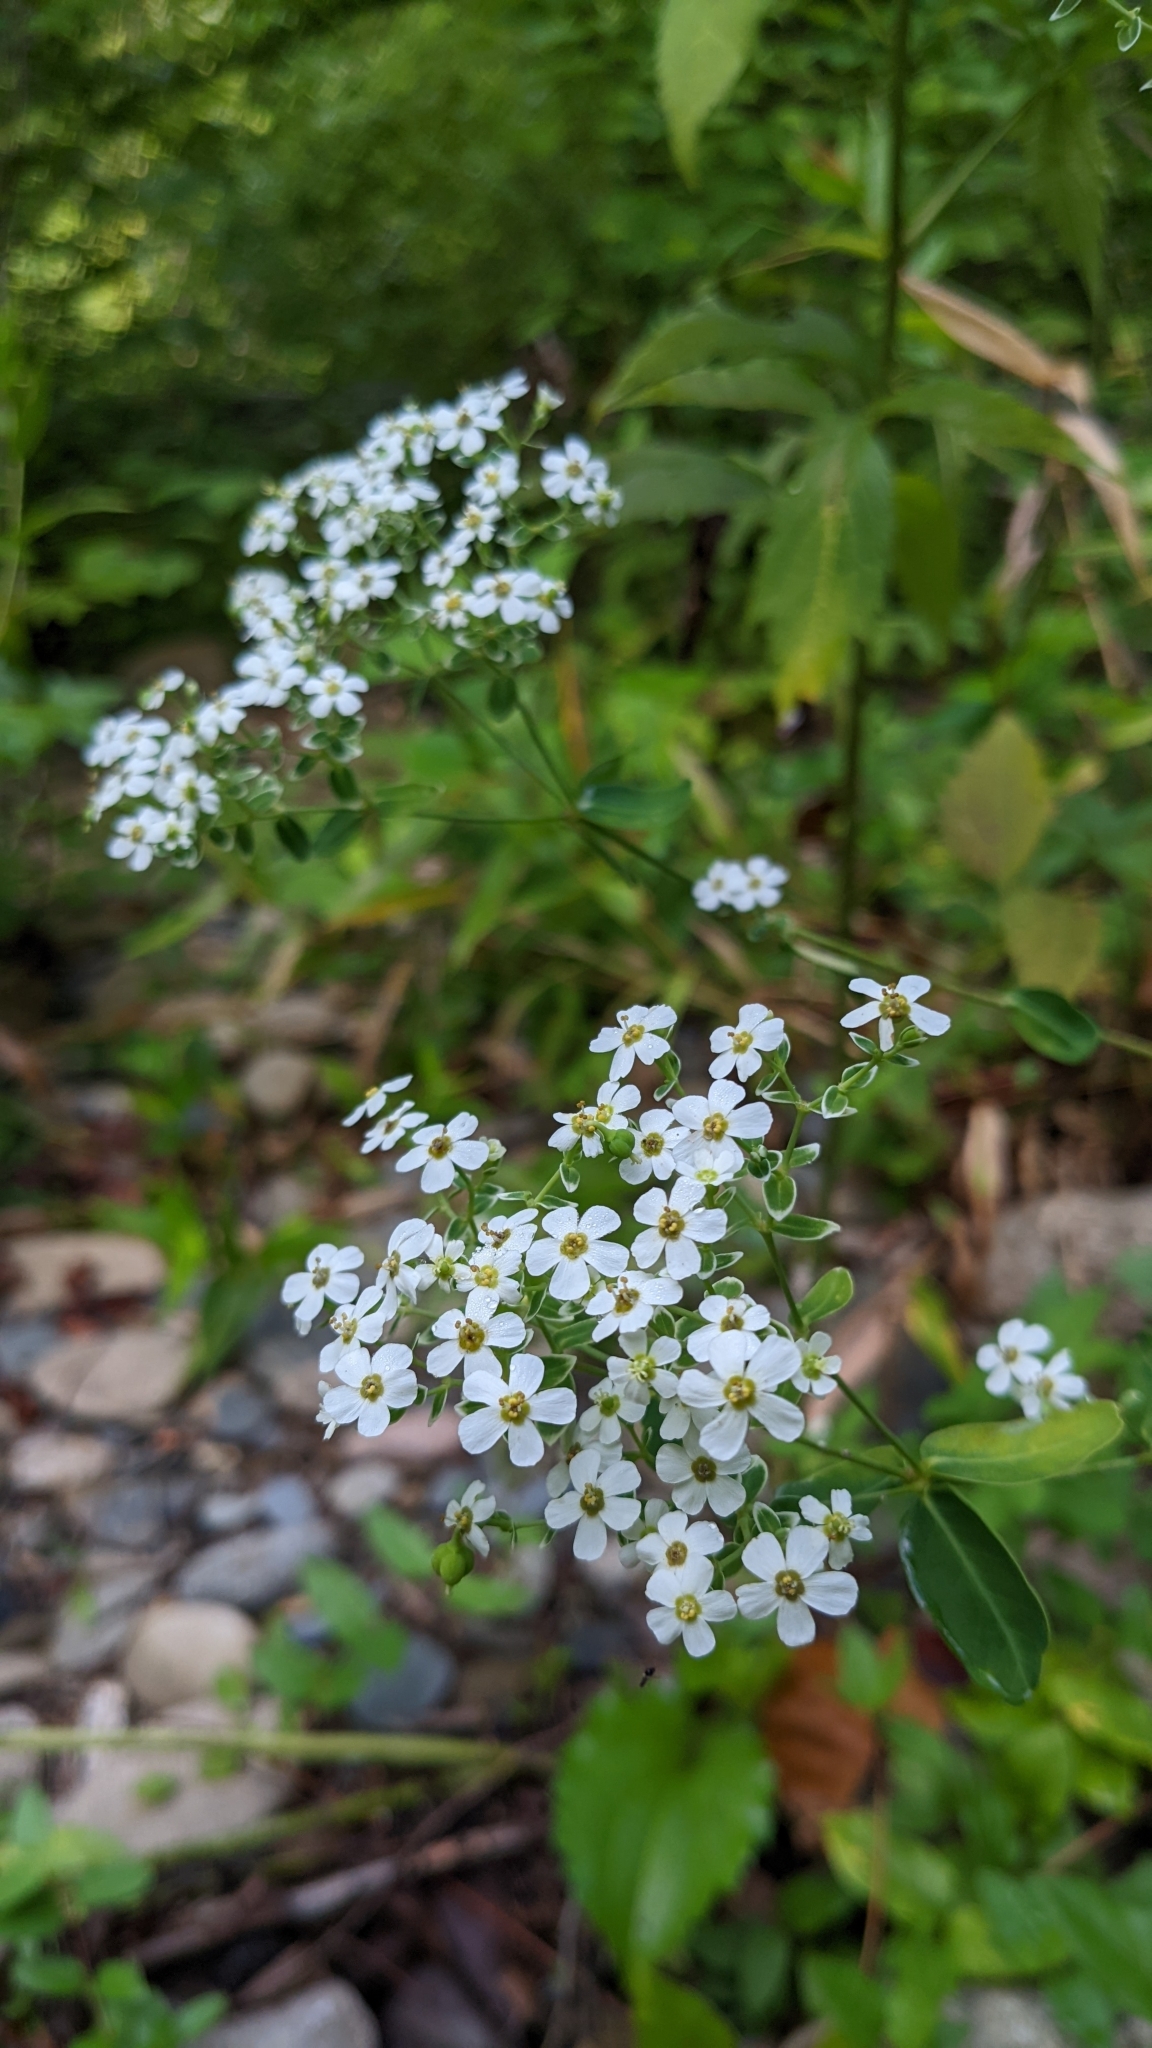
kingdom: Plantae
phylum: Tracheophyta
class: Magnoliopsida
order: Malpighiales
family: Euphorbiaceae
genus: Euphorbia
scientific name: Euphorbia corollata
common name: Flowering spurge
